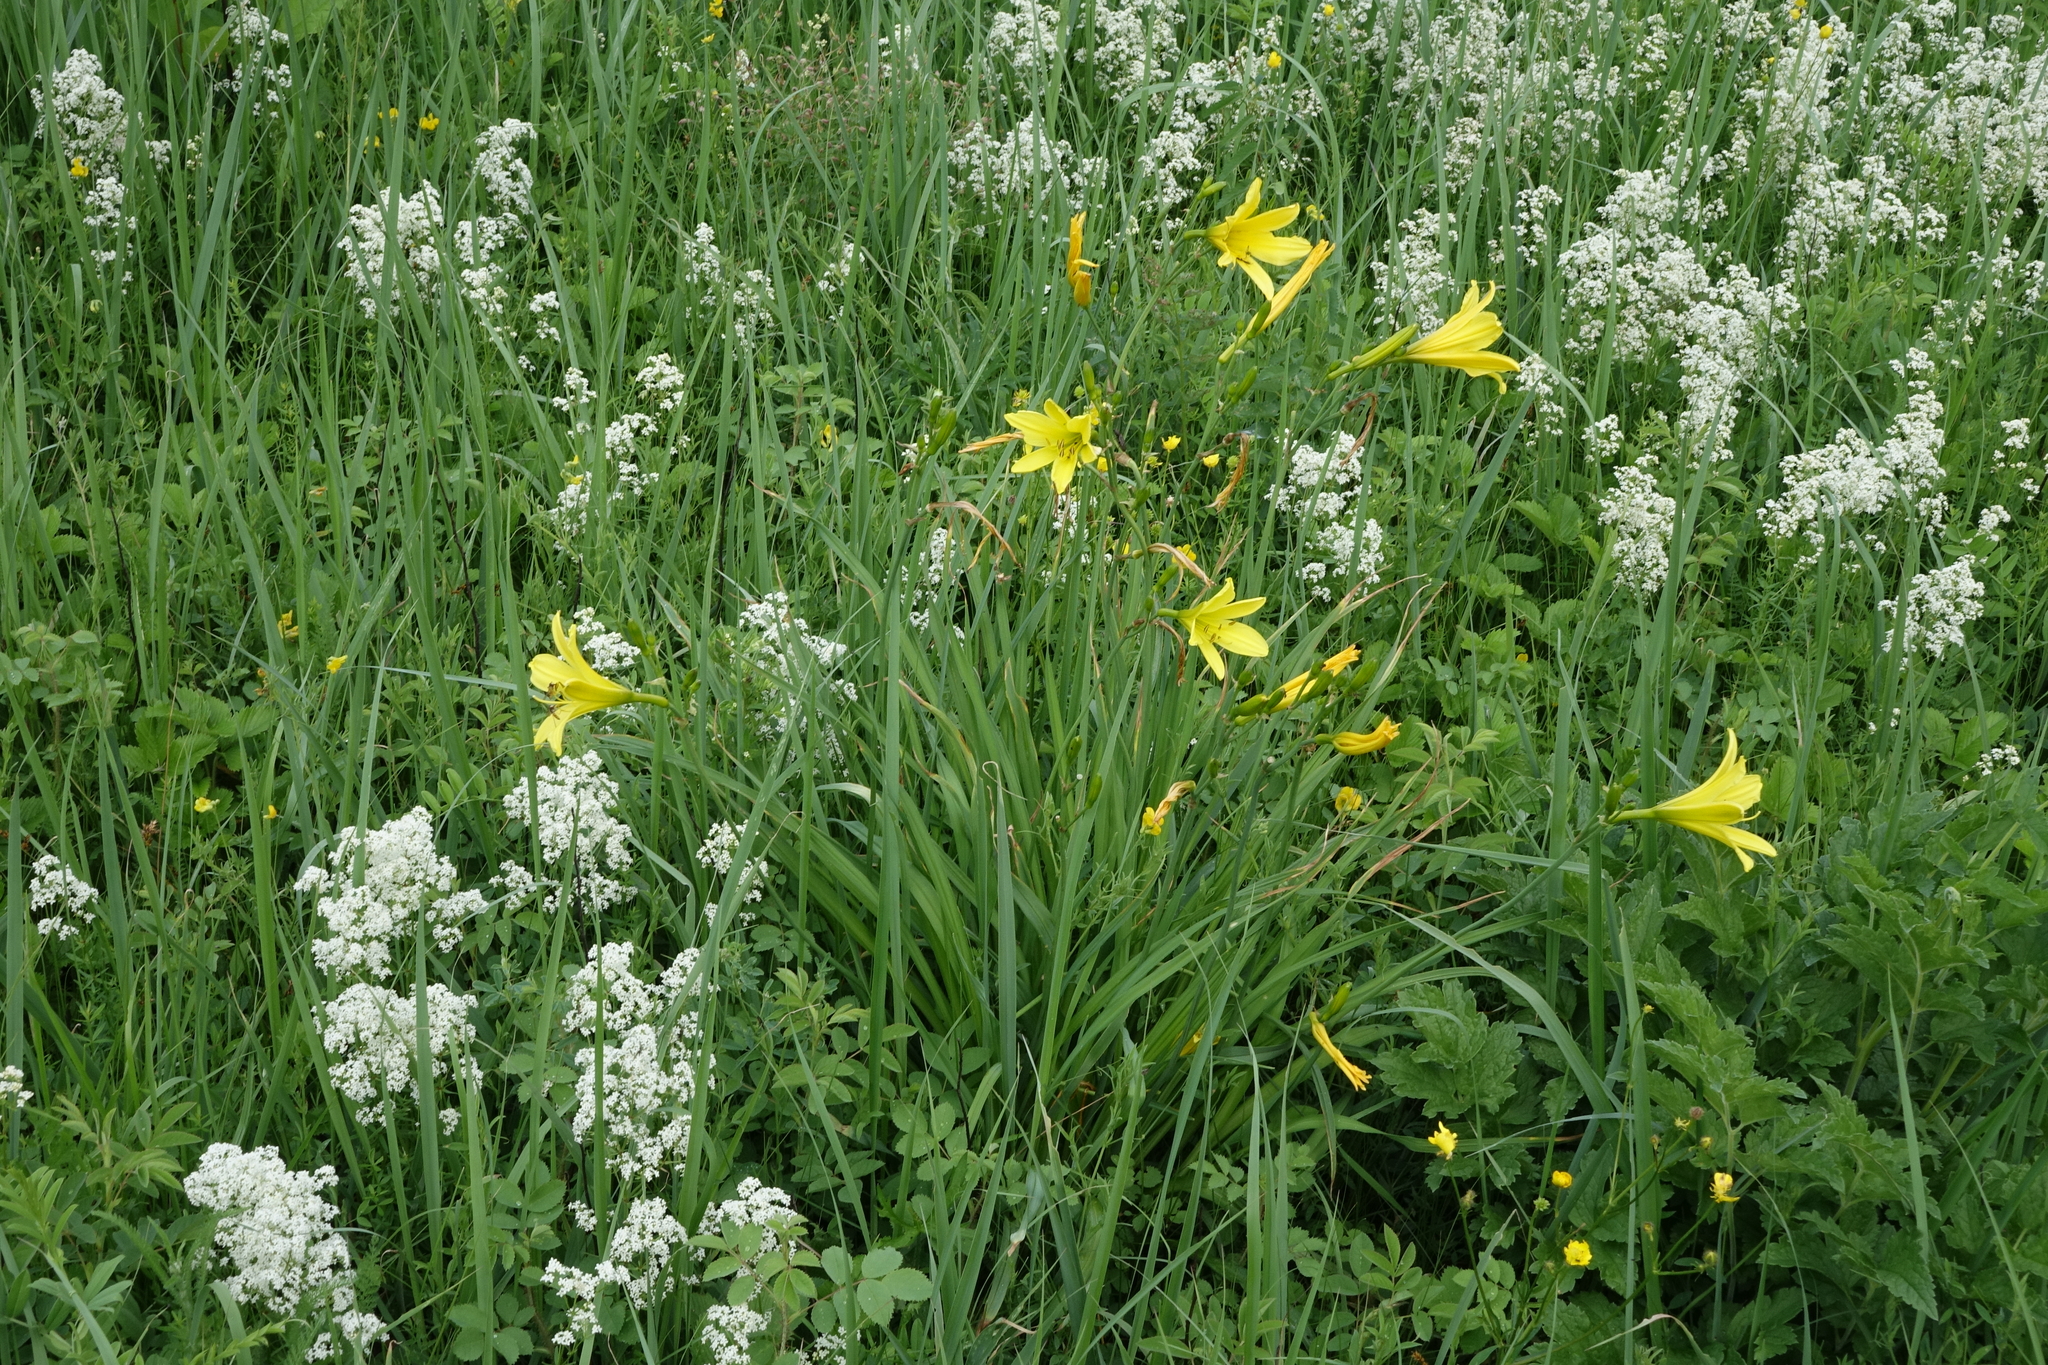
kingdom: Plantae
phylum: Tracheophyta
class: Liliopsida
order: Asparagales
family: Asphodelaceae
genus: Hemerocallis
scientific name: Hemerocallis minor
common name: Small daylily
